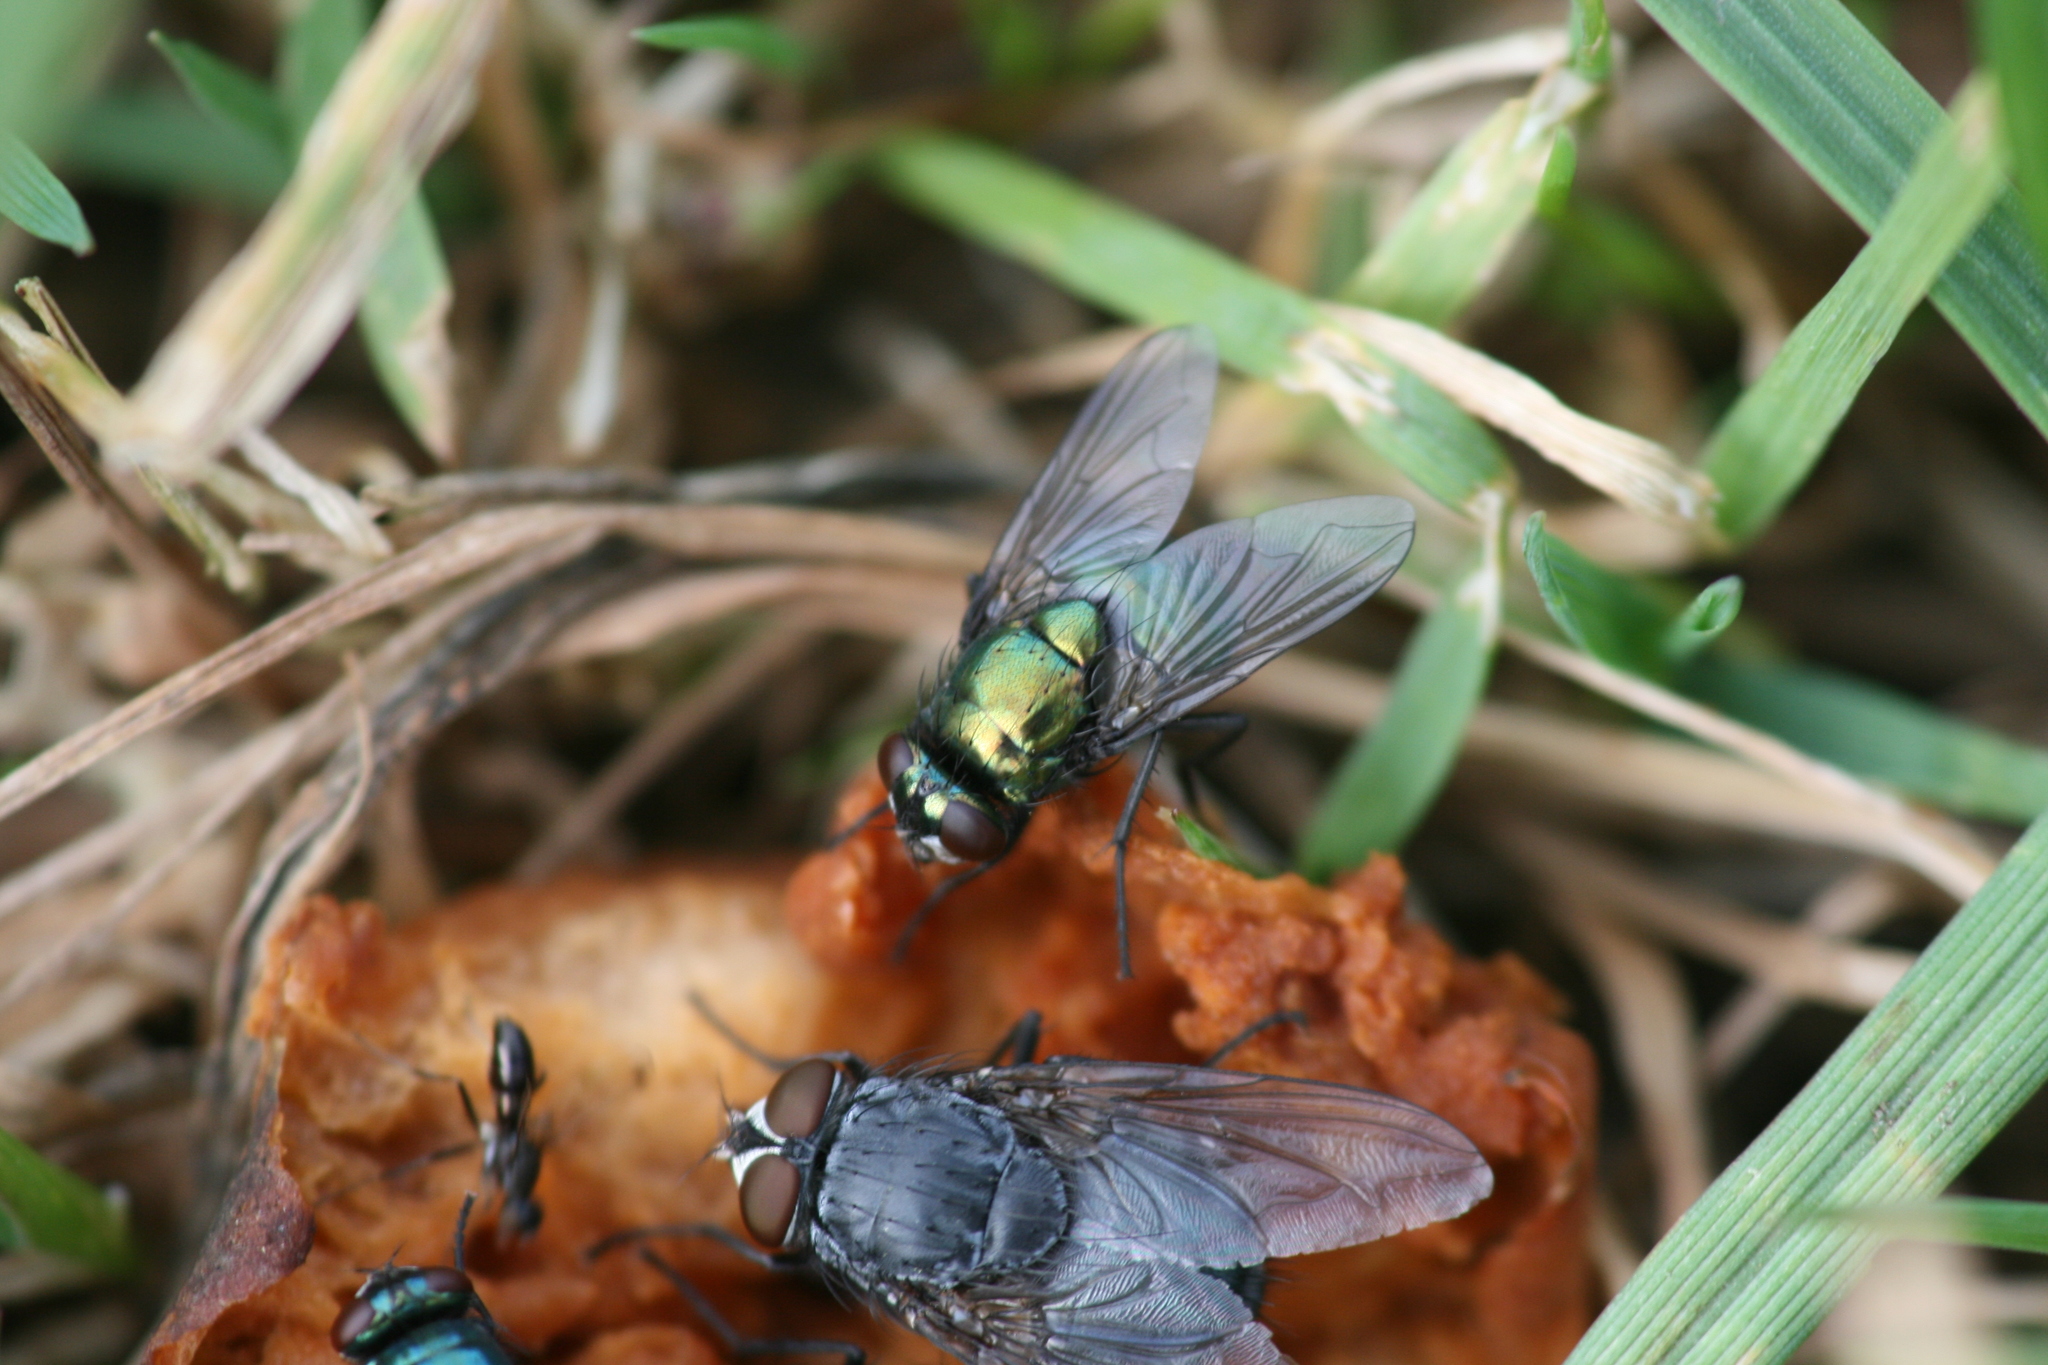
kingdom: Animalia
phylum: Arthropoda
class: Insecta
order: Diptera
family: Muscidae
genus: Neomyia
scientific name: Neomyia cornicina
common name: House fly
